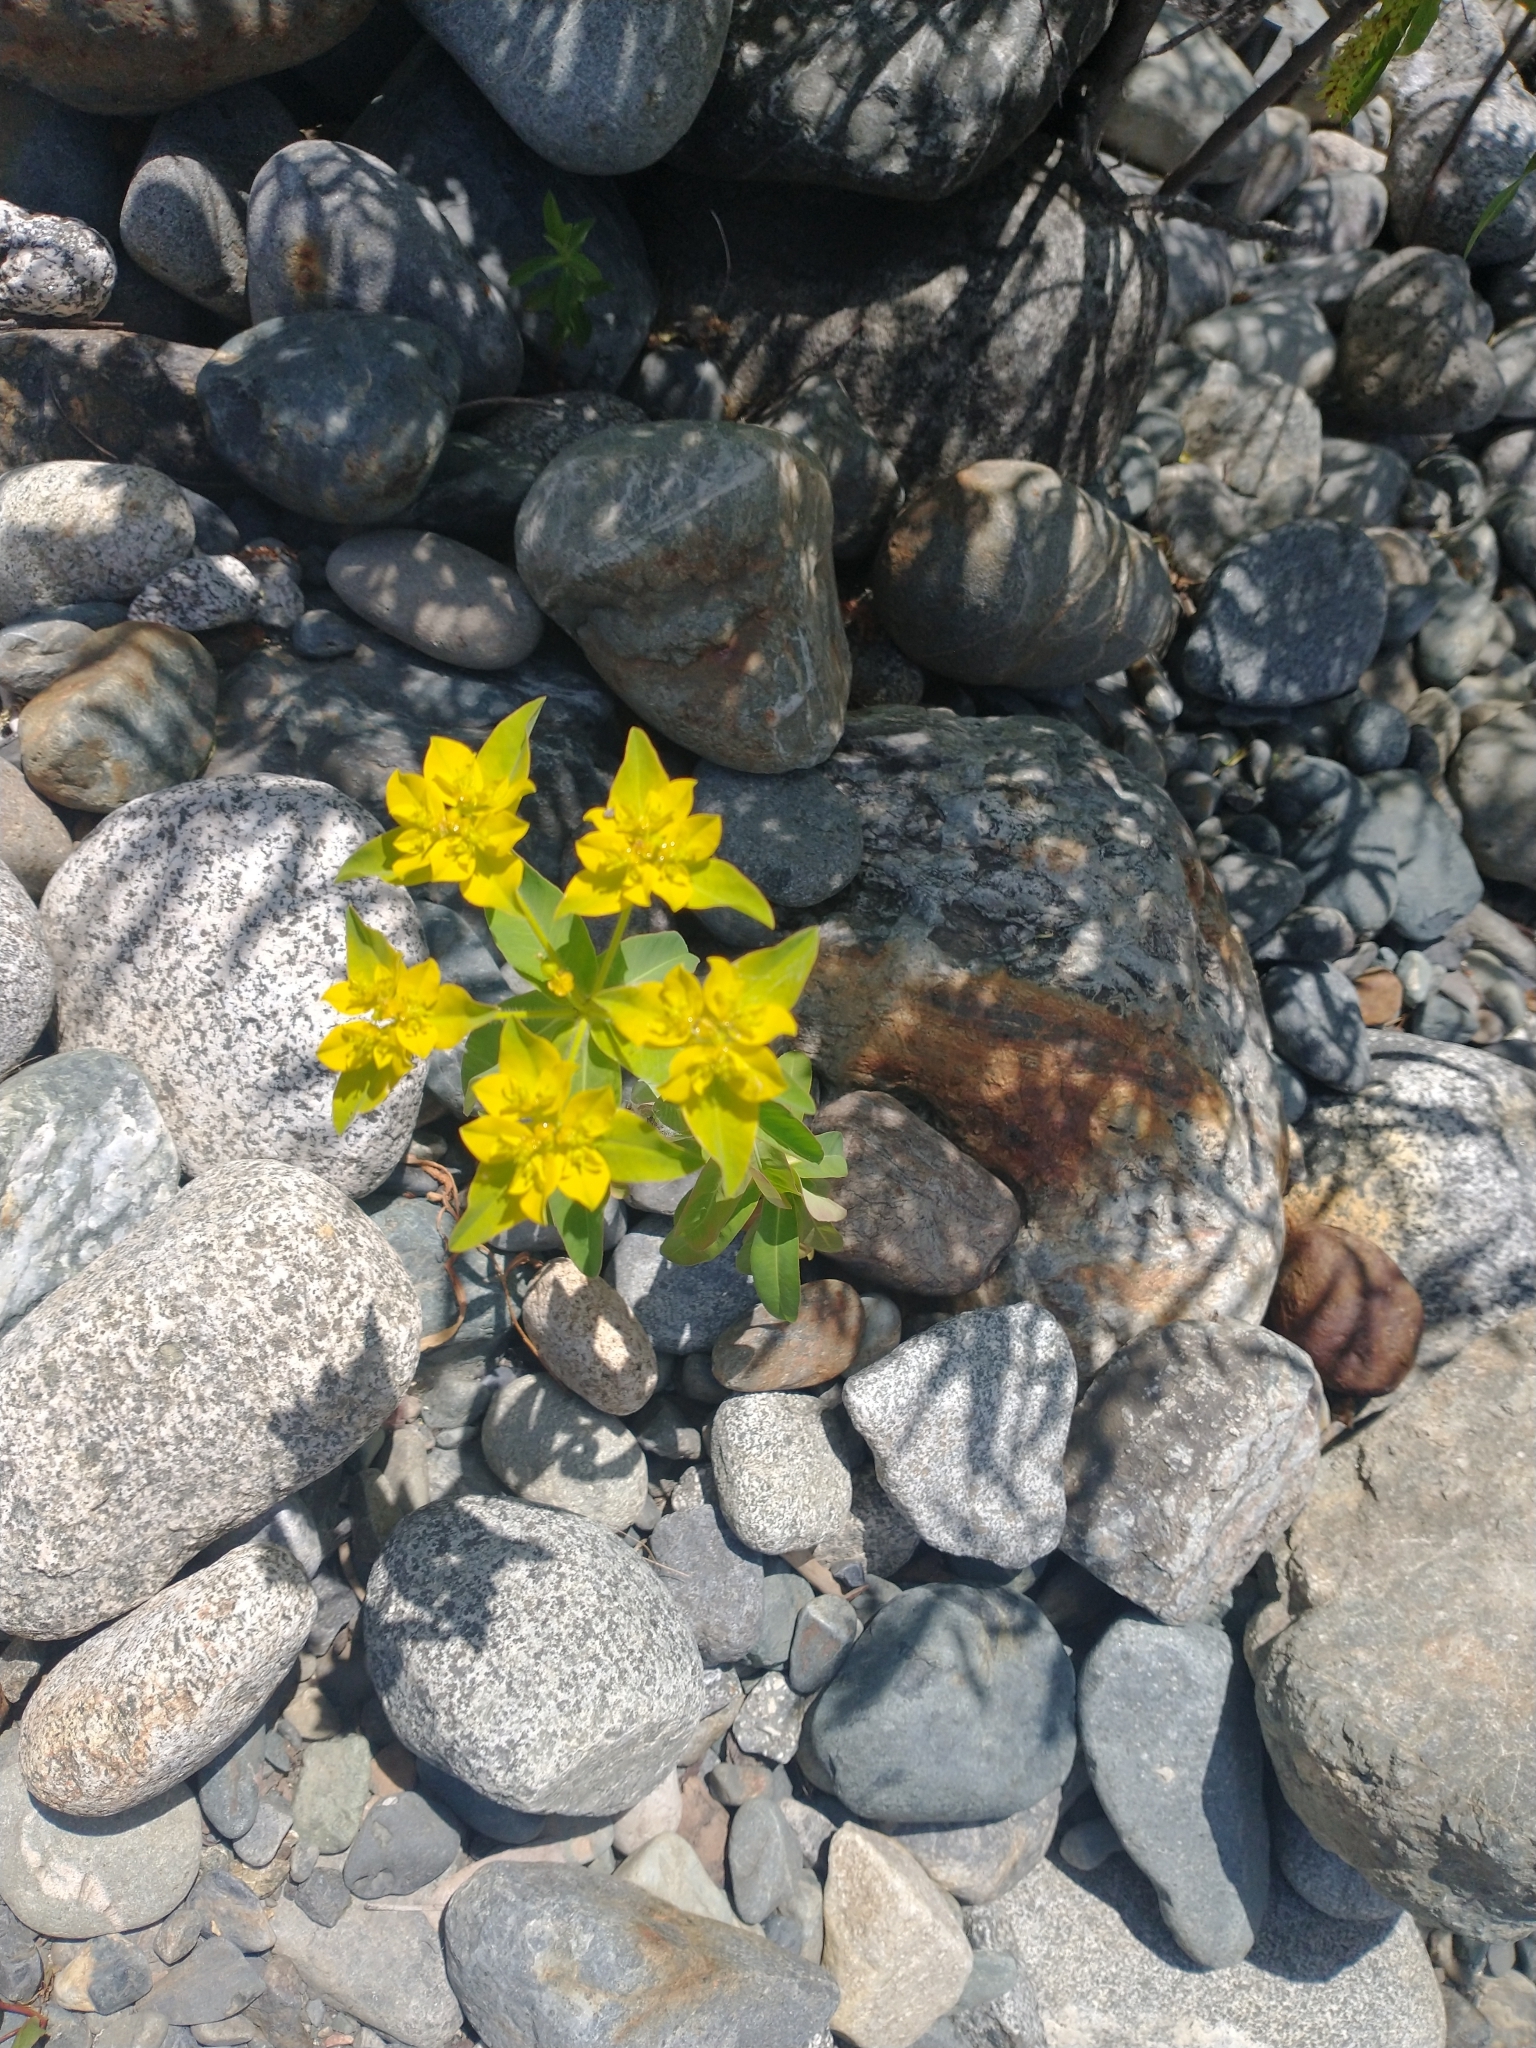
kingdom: Plantae
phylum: Tracheophyta
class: Magnoliopsida
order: Malpighiales
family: Euphorbiaceae
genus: Euphorbia
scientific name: Euphorbia oblongata
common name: Balkan spurge
